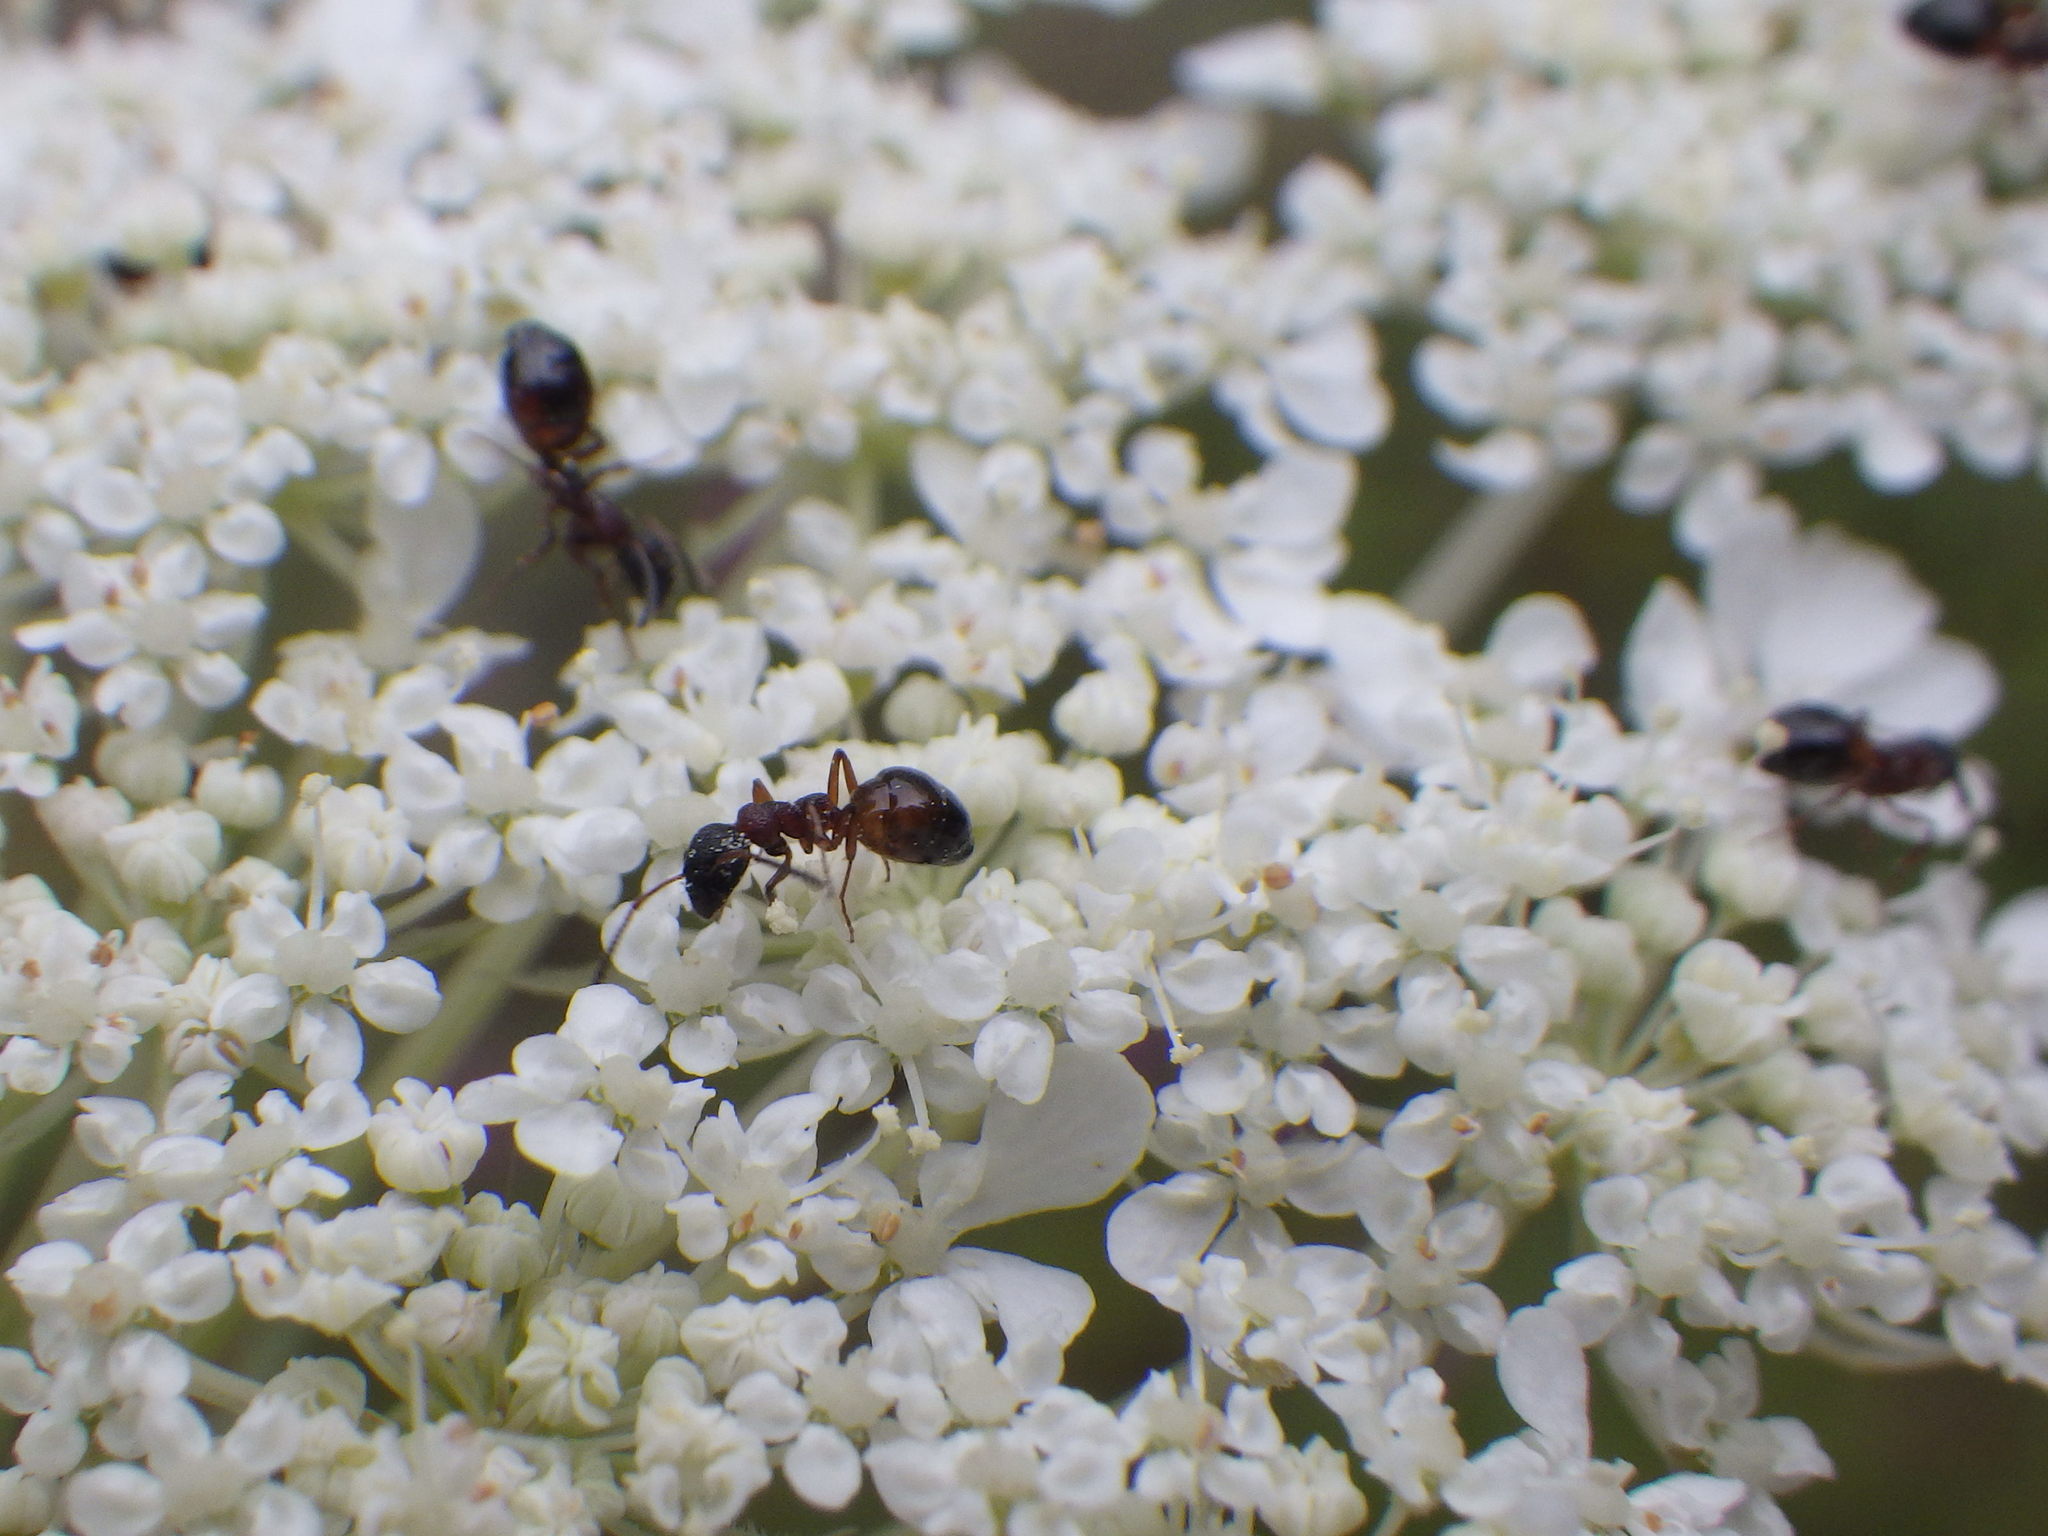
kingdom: Animalia
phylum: Arthropoda
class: Insecta
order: Hymenoptera
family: Formicidae
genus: Dolichoderus
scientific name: Dolichoderus plagiatus
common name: Mottled dolichoderus
